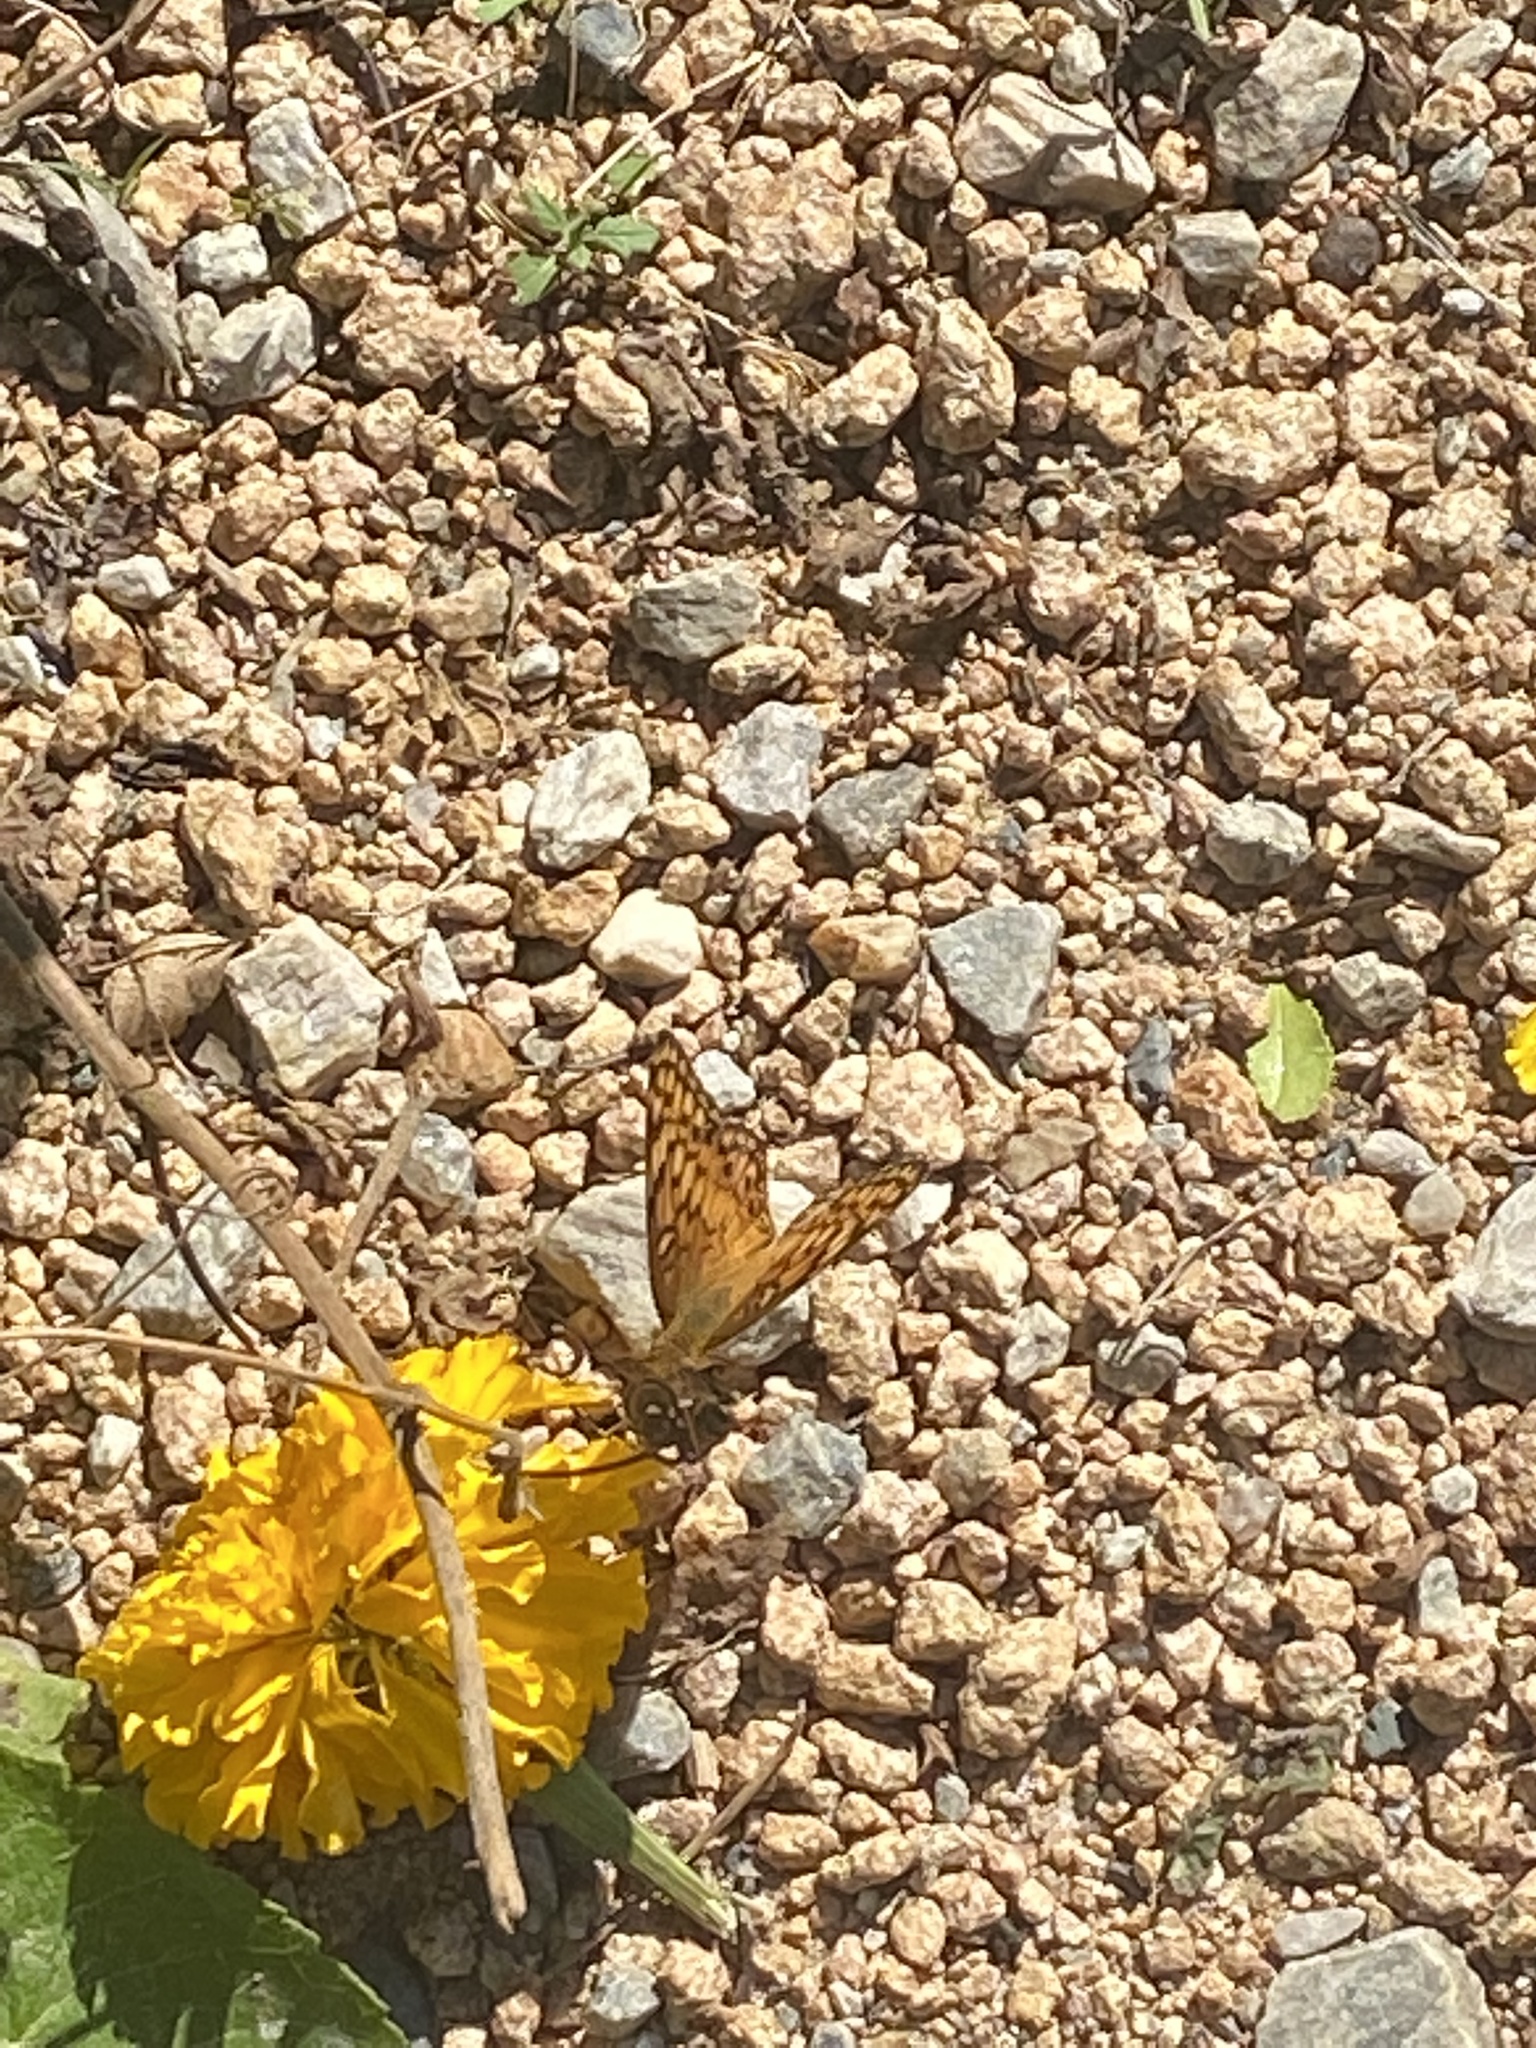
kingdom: Animalia
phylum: Arthropoda
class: Insecta
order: Lepidoptera
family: Nymphalidae
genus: Euptoieta
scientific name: Euptoieta claudia
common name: Variegated fritillary
